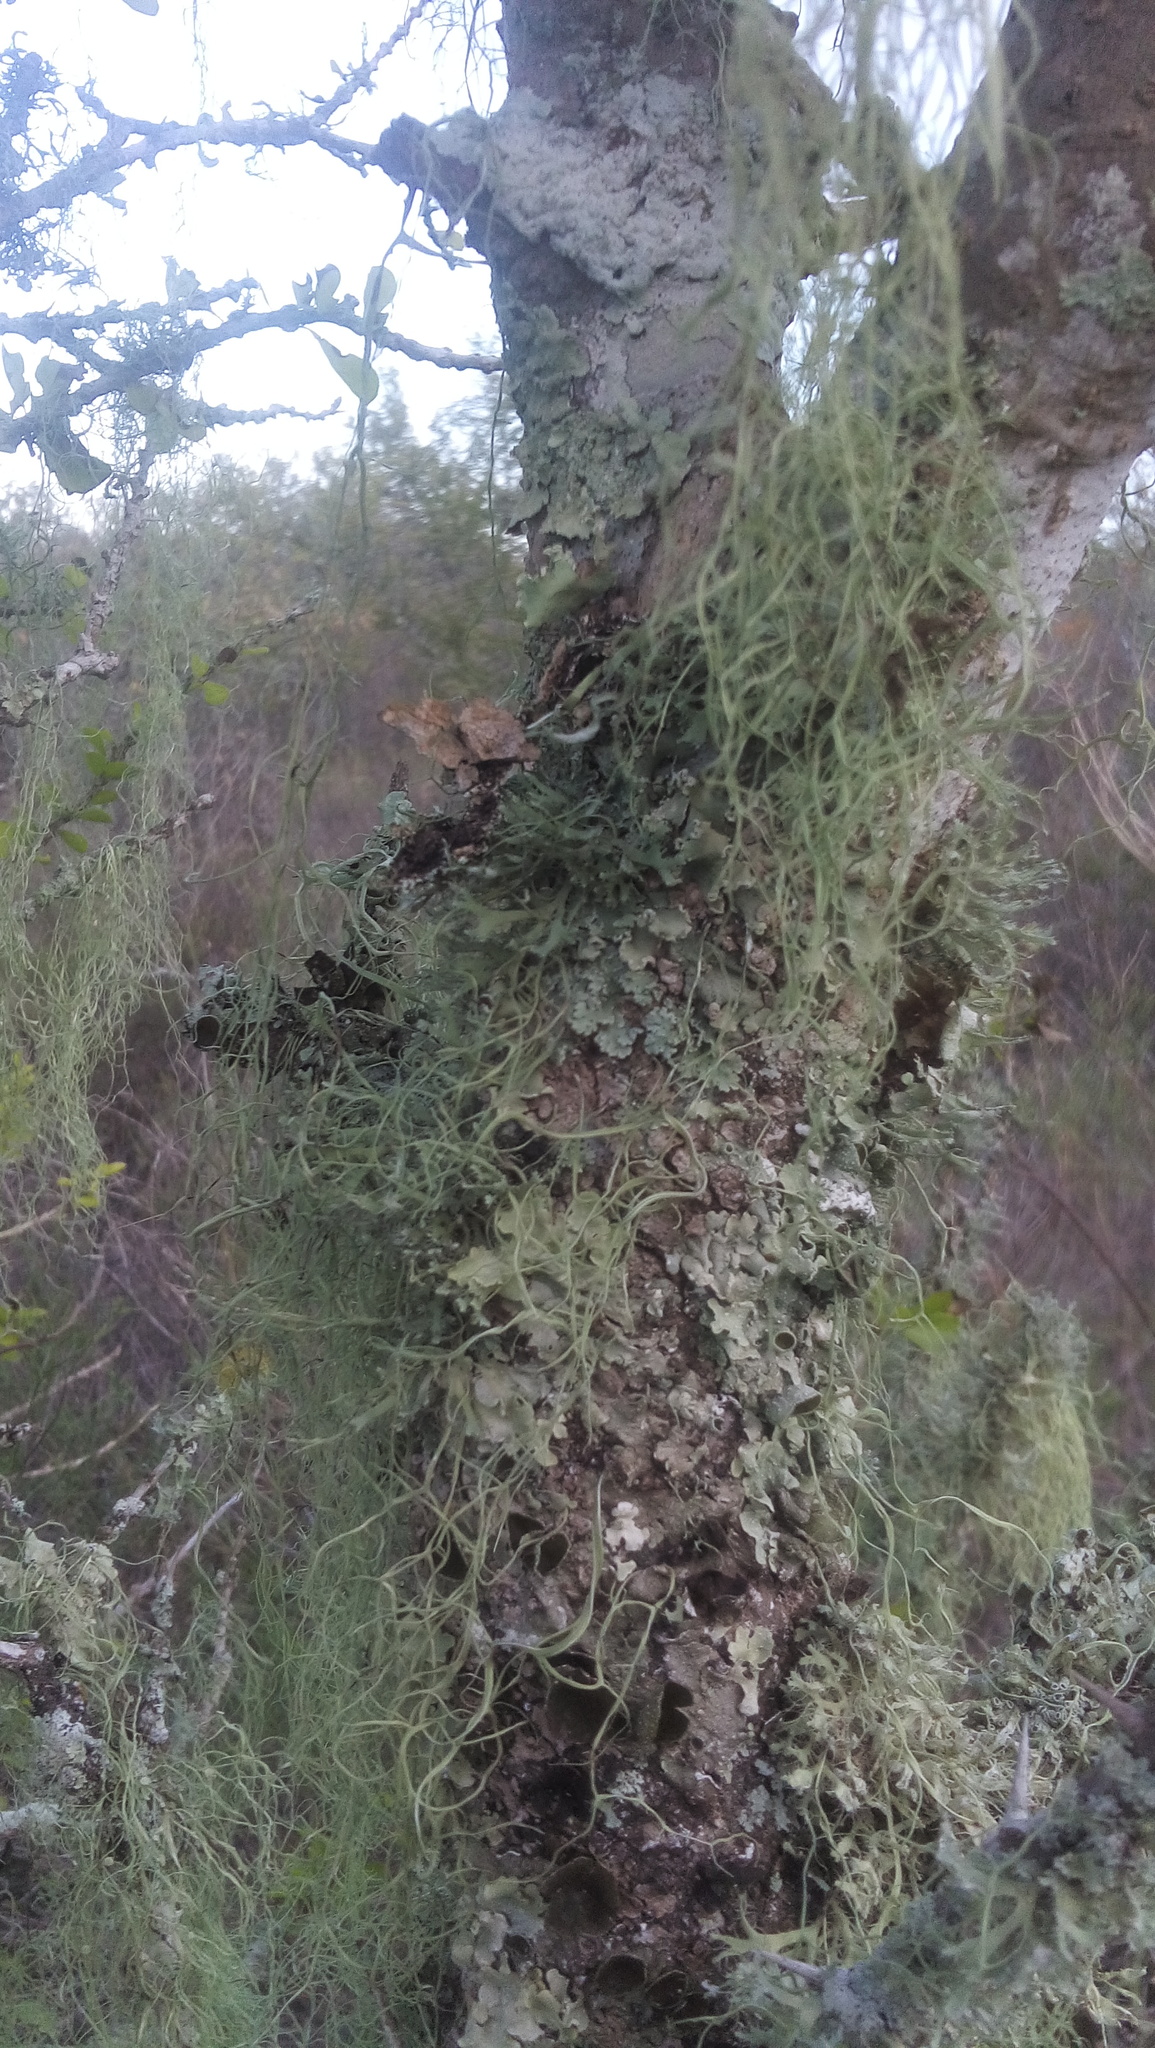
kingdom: Fungi
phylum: Ascomycota
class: Lecanoromycetes
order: Lecanorales
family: Ramalinaceae
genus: Ramalina
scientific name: Ramalina usnea
